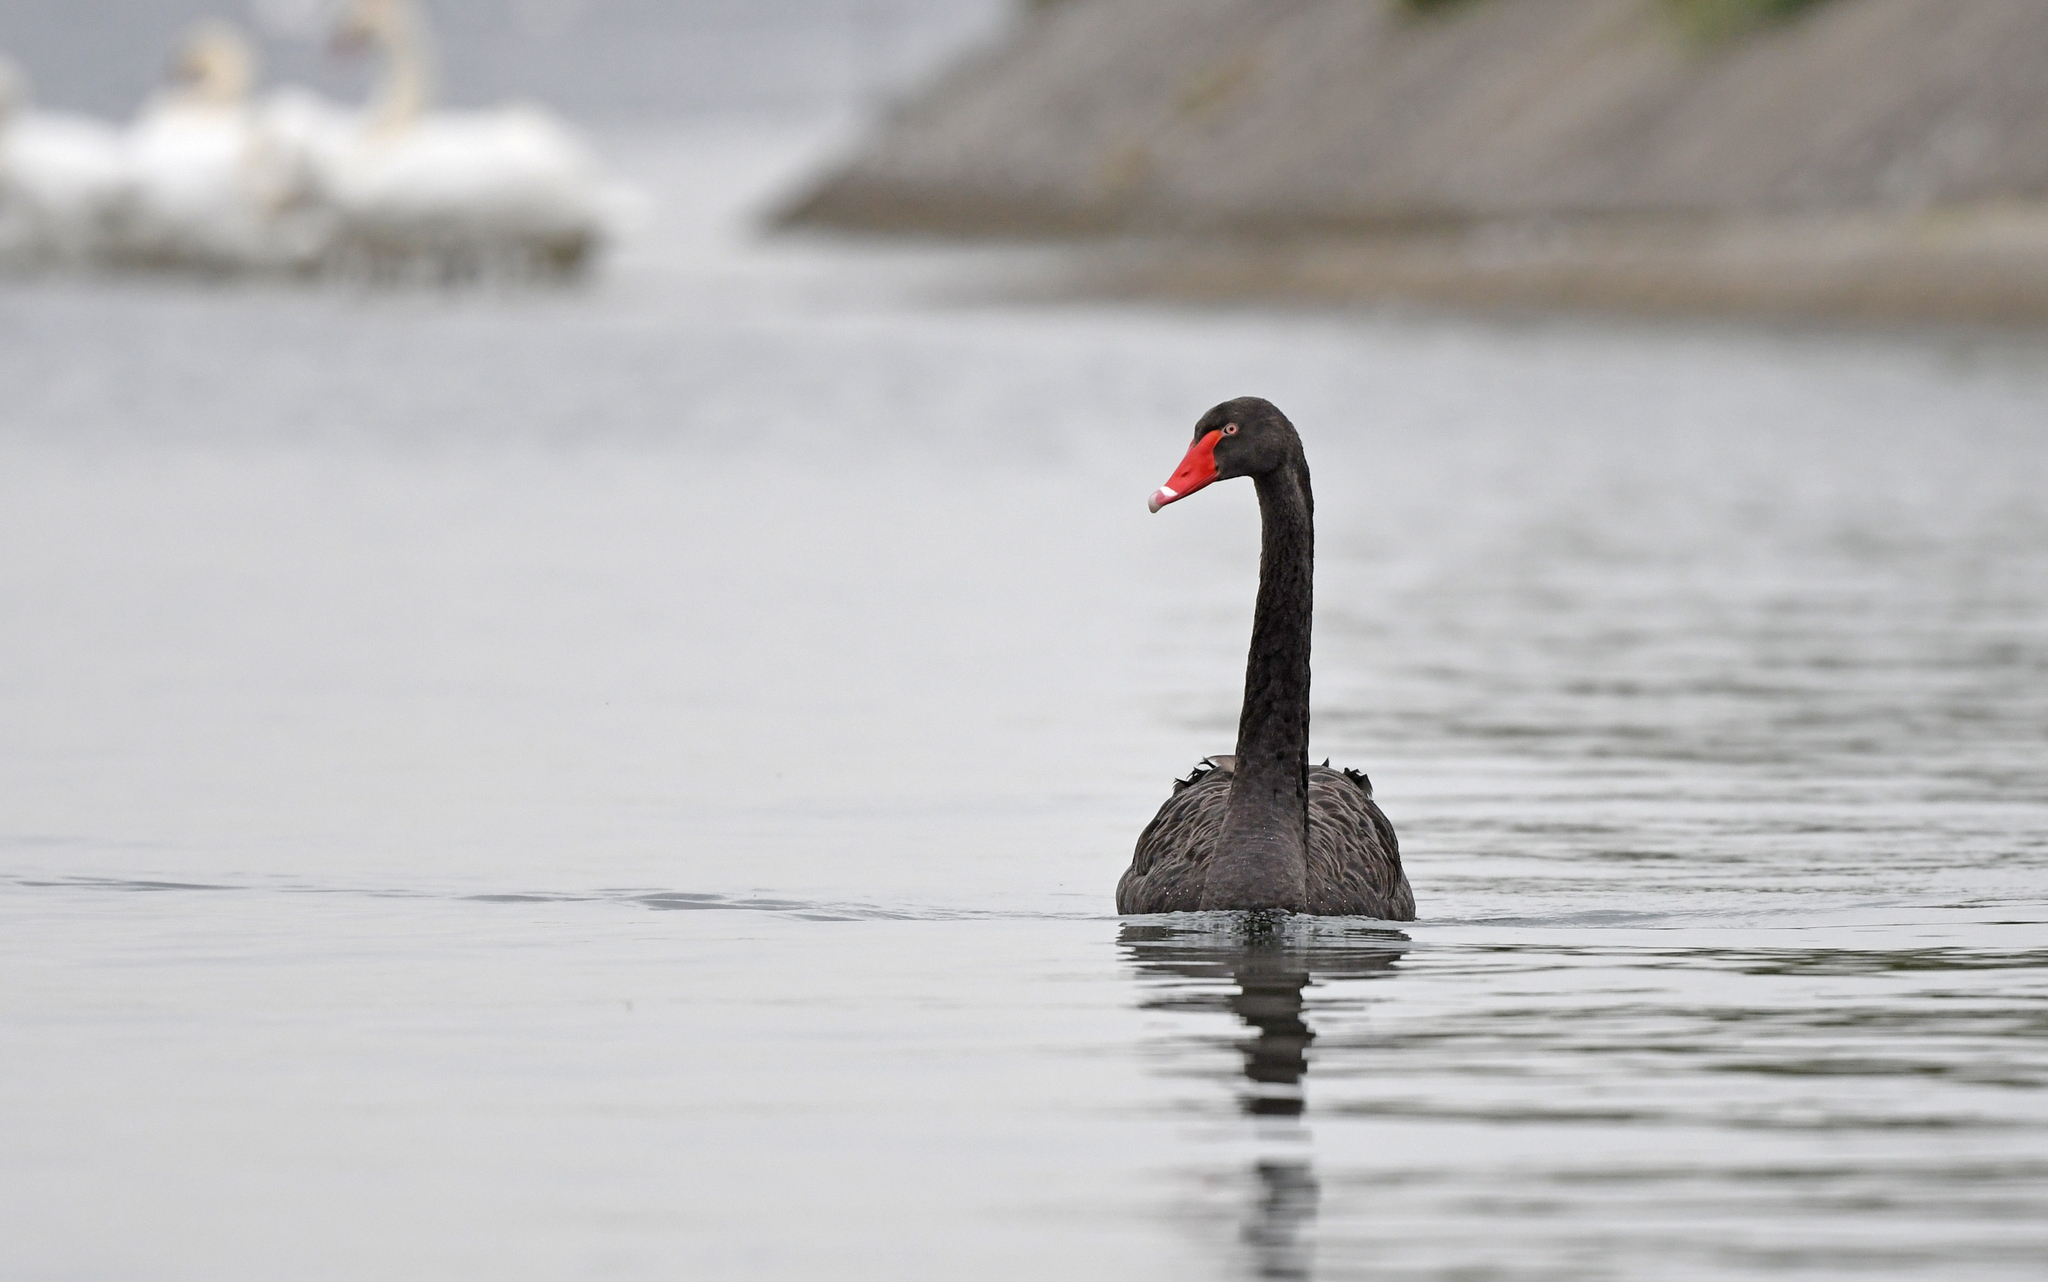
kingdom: Animalia
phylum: Chordata
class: Aves
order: Anseriformes
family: Anatidae
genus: Cygnus
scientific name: Cygnus atratus
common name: Black swan
